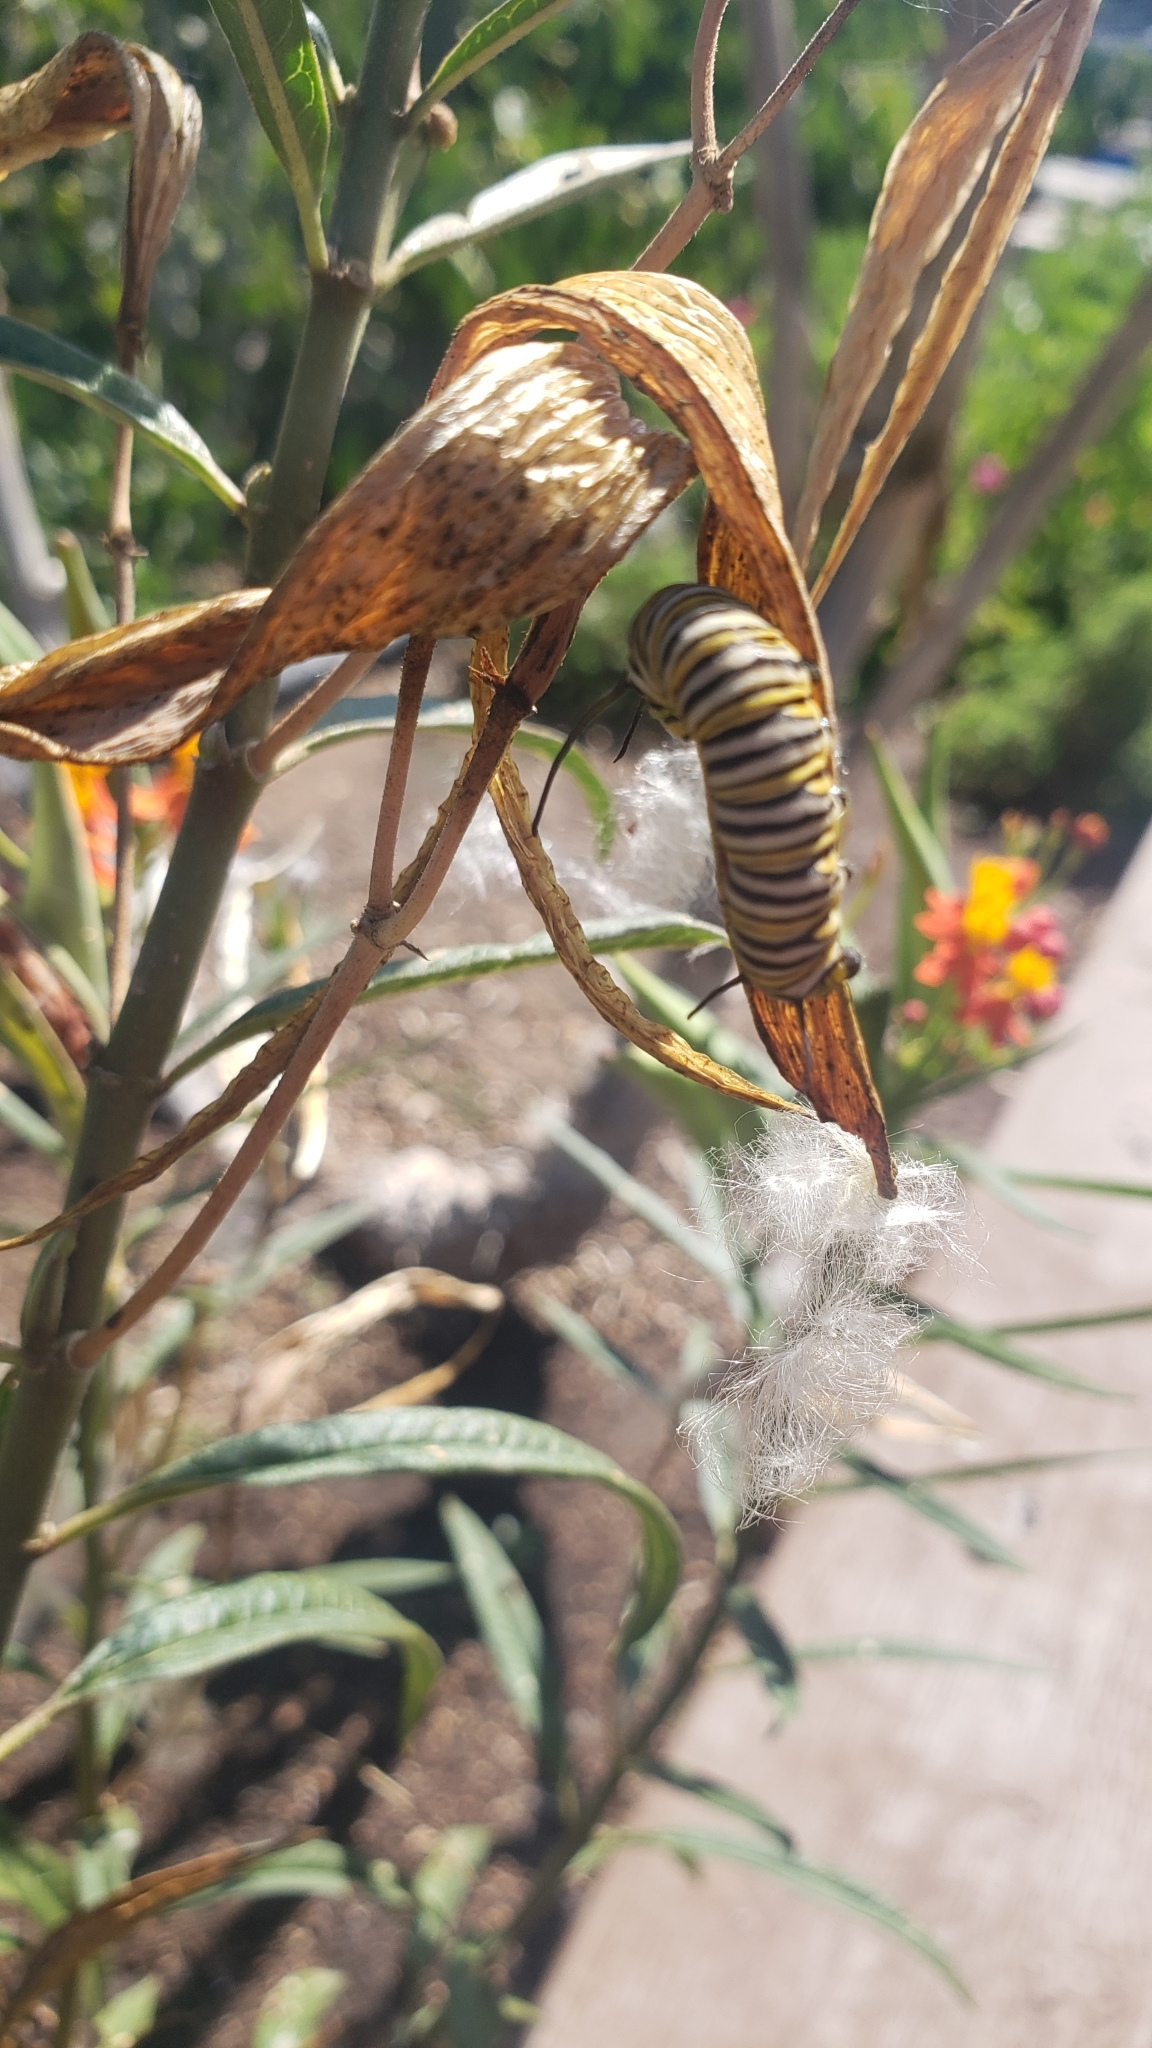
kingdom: Animalia
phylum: Arthropoda
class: Insecta
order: Lepidoptera
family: Nymphalidae
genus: Danaus
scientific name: Danaus plexippus
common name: Monarch
